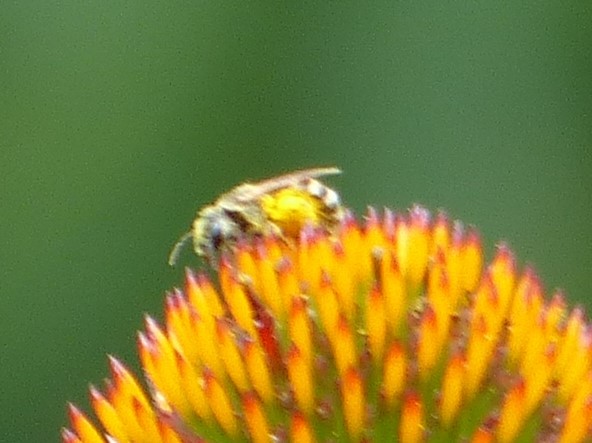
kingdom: Animalia
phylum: Arthropoda
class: Insecta
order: Hymenoptera
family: Halictidae
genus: Halictus
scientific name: Halictus ligatus
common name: Ligated furrow bee
